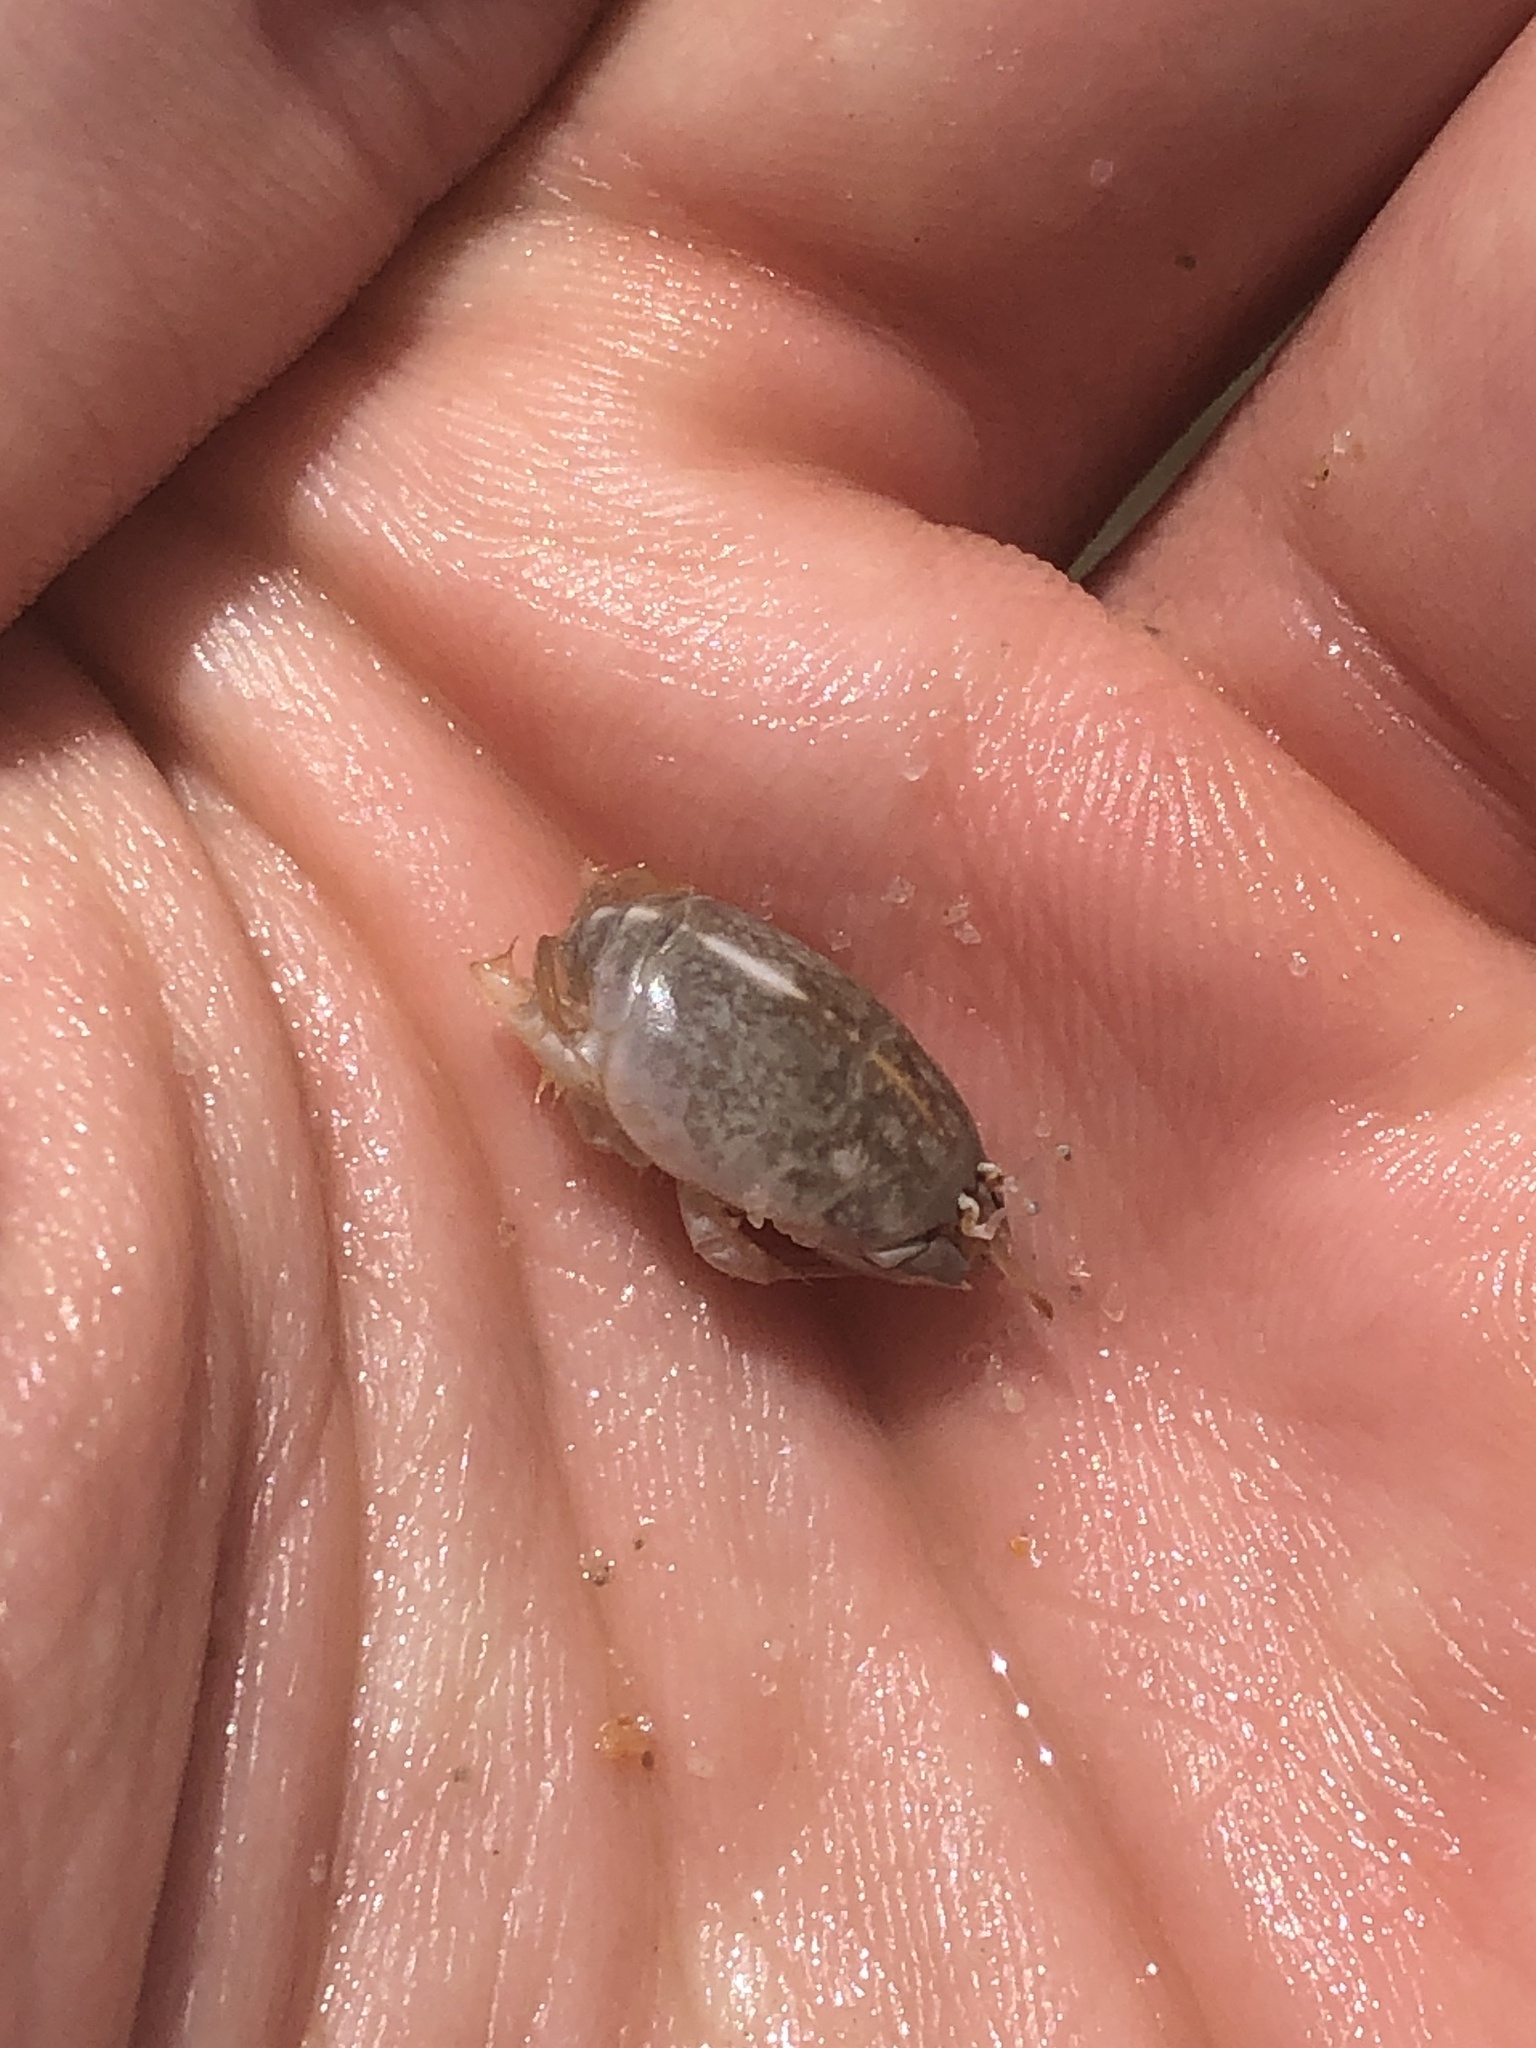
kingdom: Animalia
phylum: Arthropoda
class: Malacostraca
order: Decapoda
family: Hippidae
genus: Emerita
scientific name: Emerita analoga
